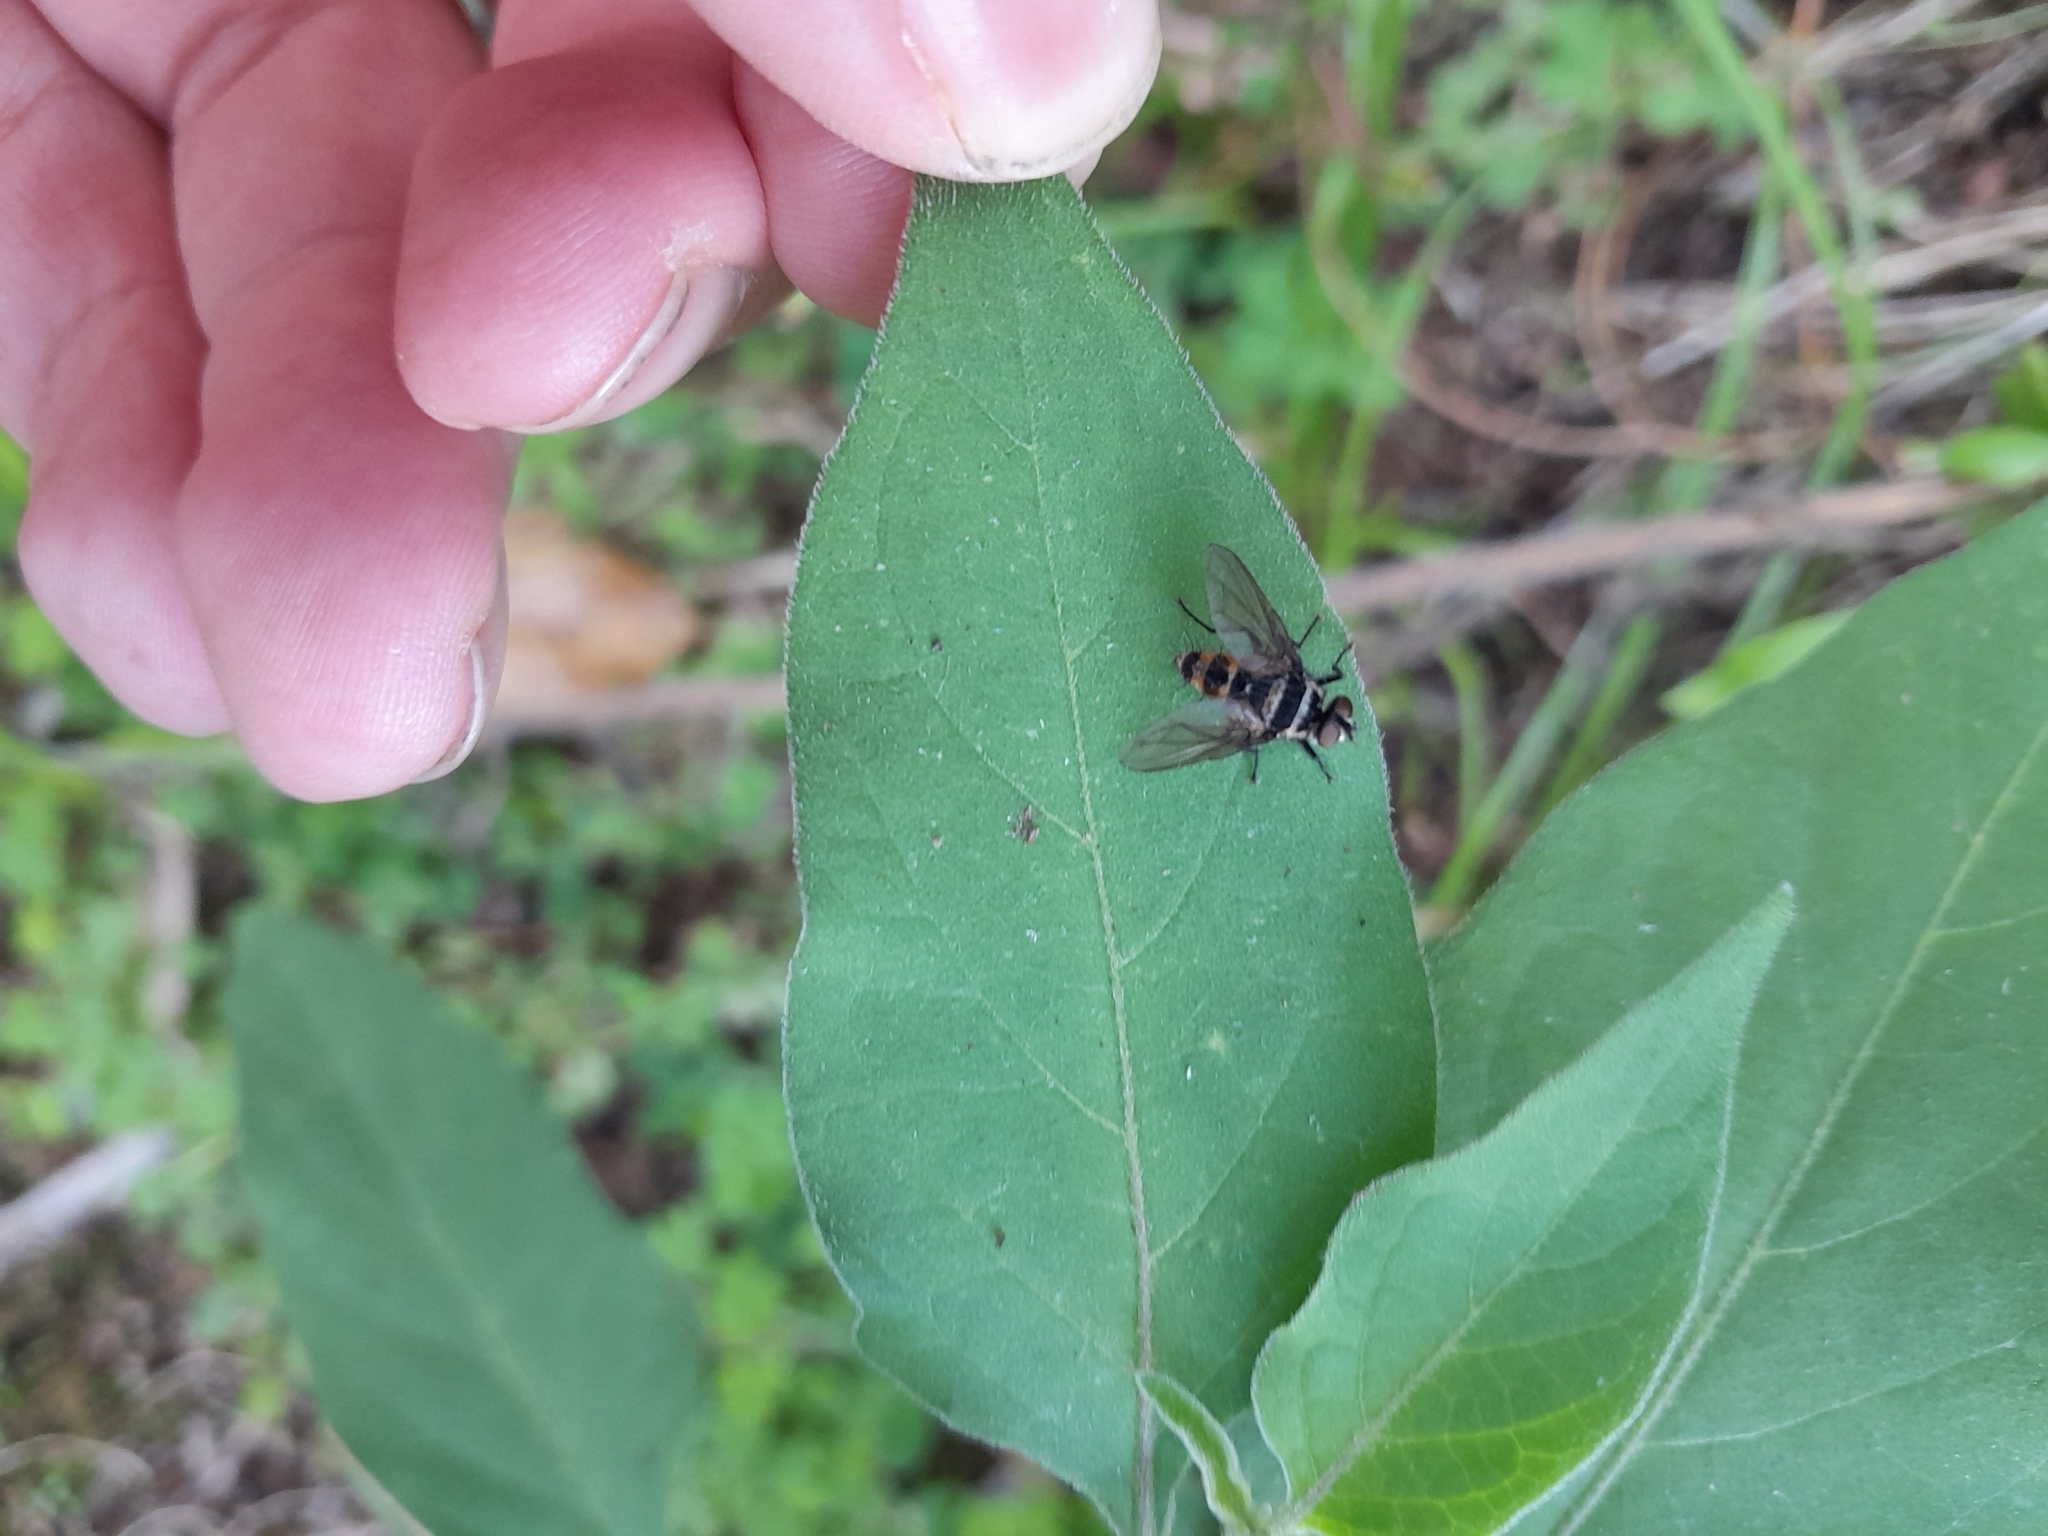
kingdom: Animalia
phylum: Arthropoda
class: Insecta
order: Diptera
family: Tachinidae
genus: Trigonospila
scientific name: Trigonospila brevifacies
